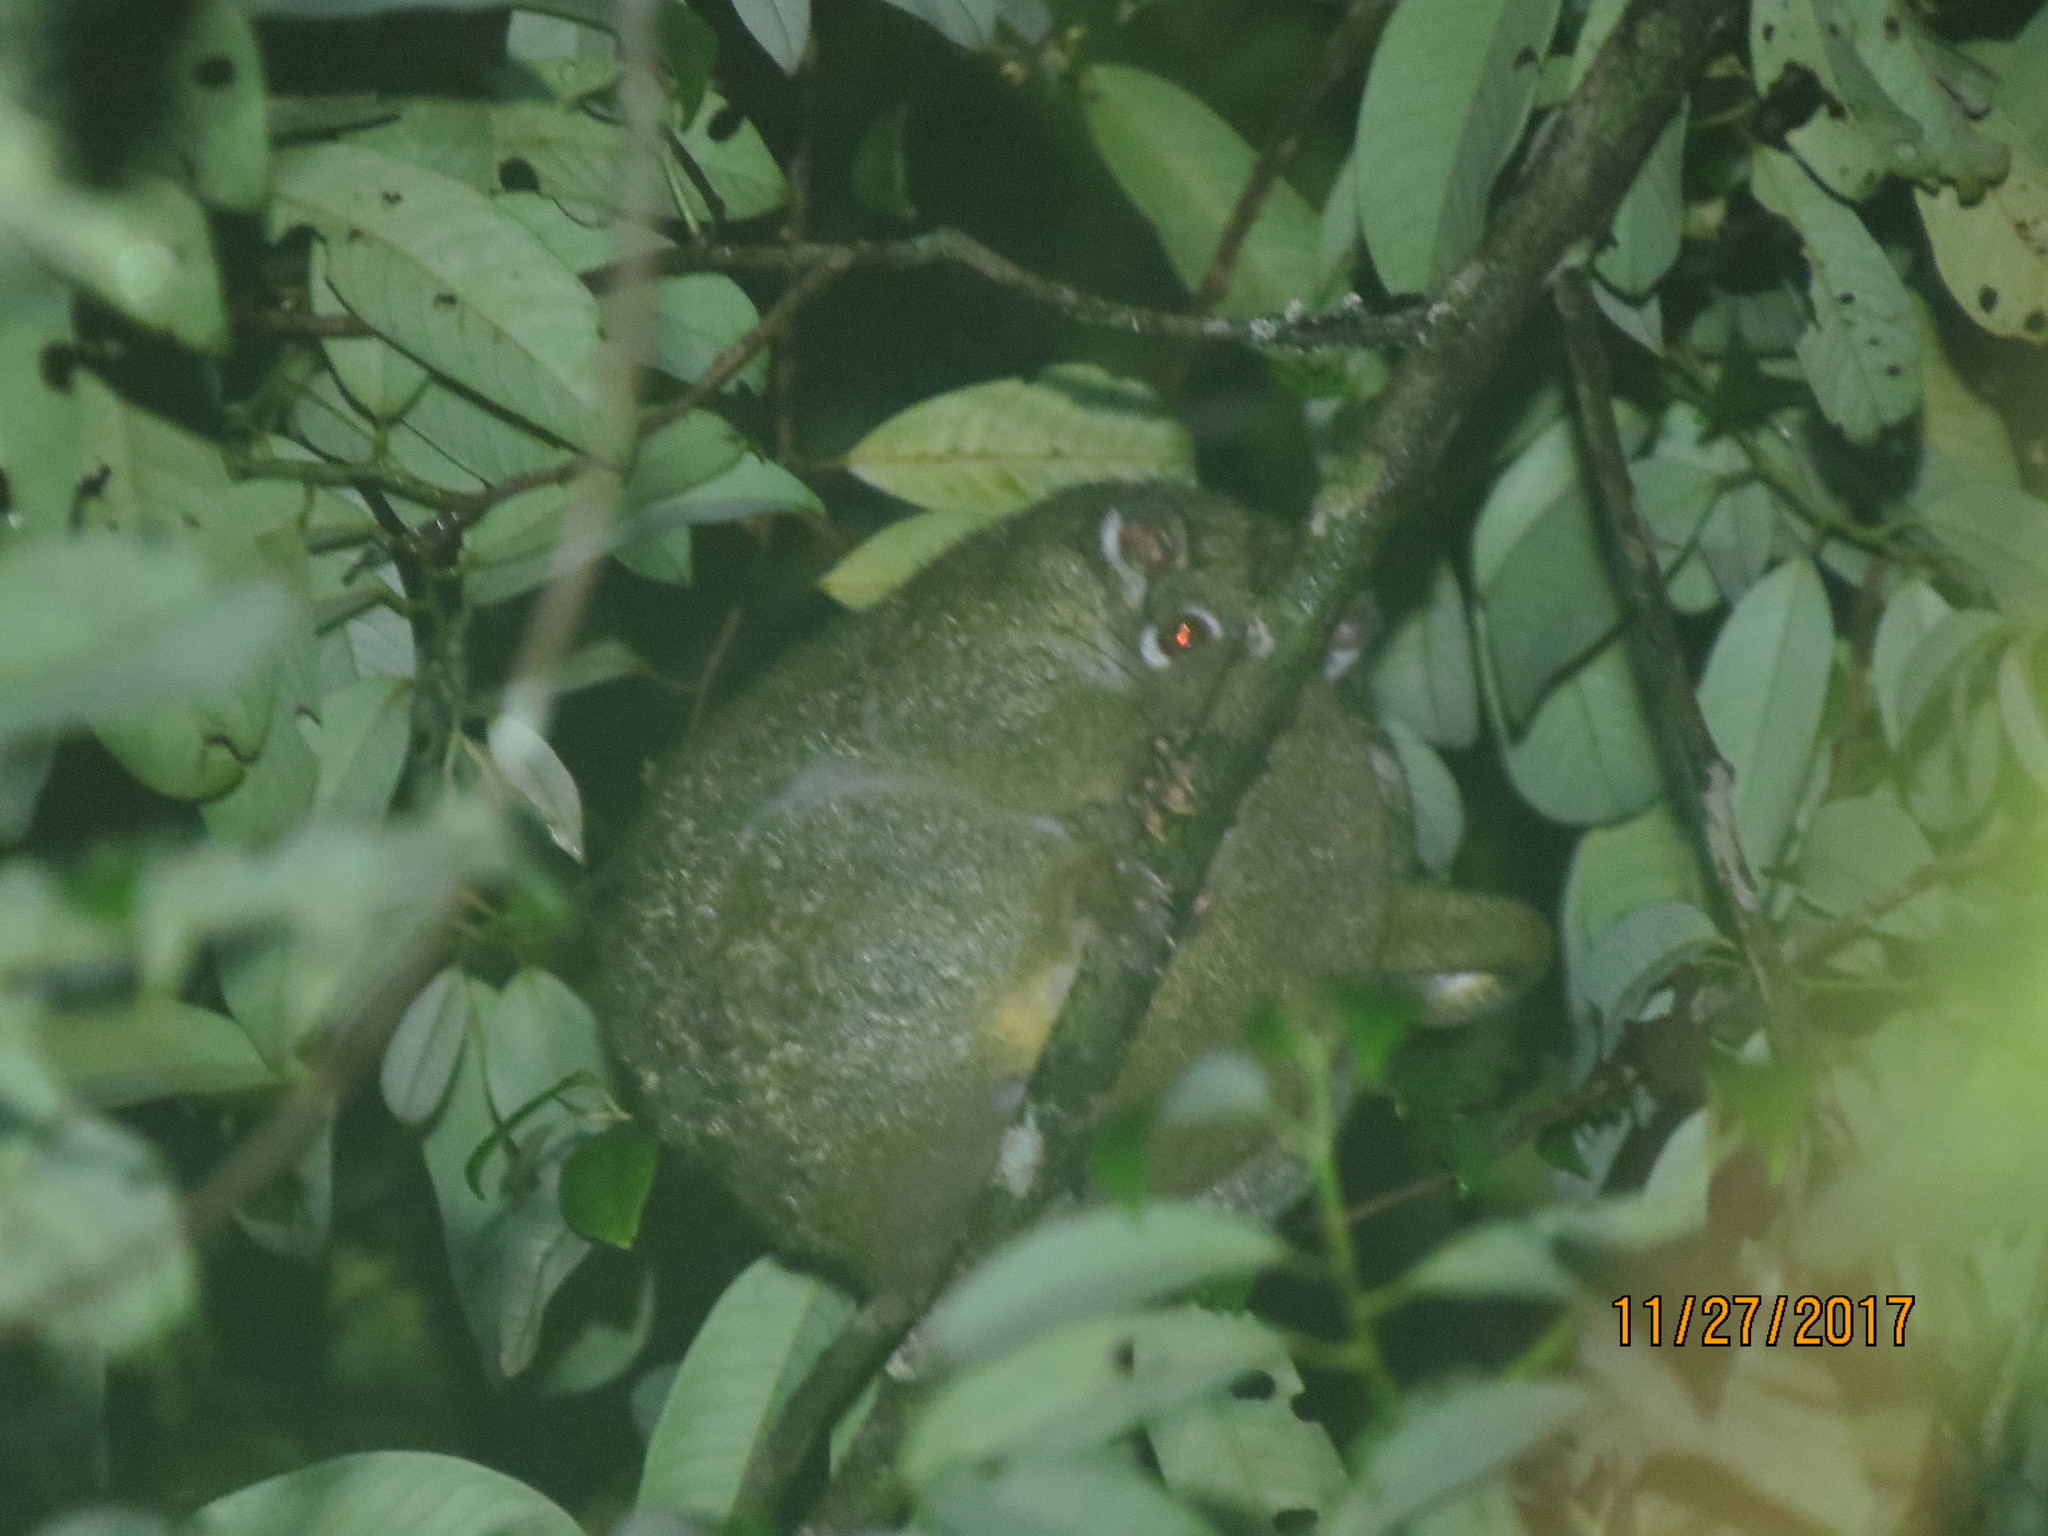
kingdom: Animalia
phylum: Chordata
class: Mammalia
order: Diprotodontia
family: Pseudocheiridae
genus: Pseudochirops
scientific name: Pseudochirops archeri
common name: Green ringtail
